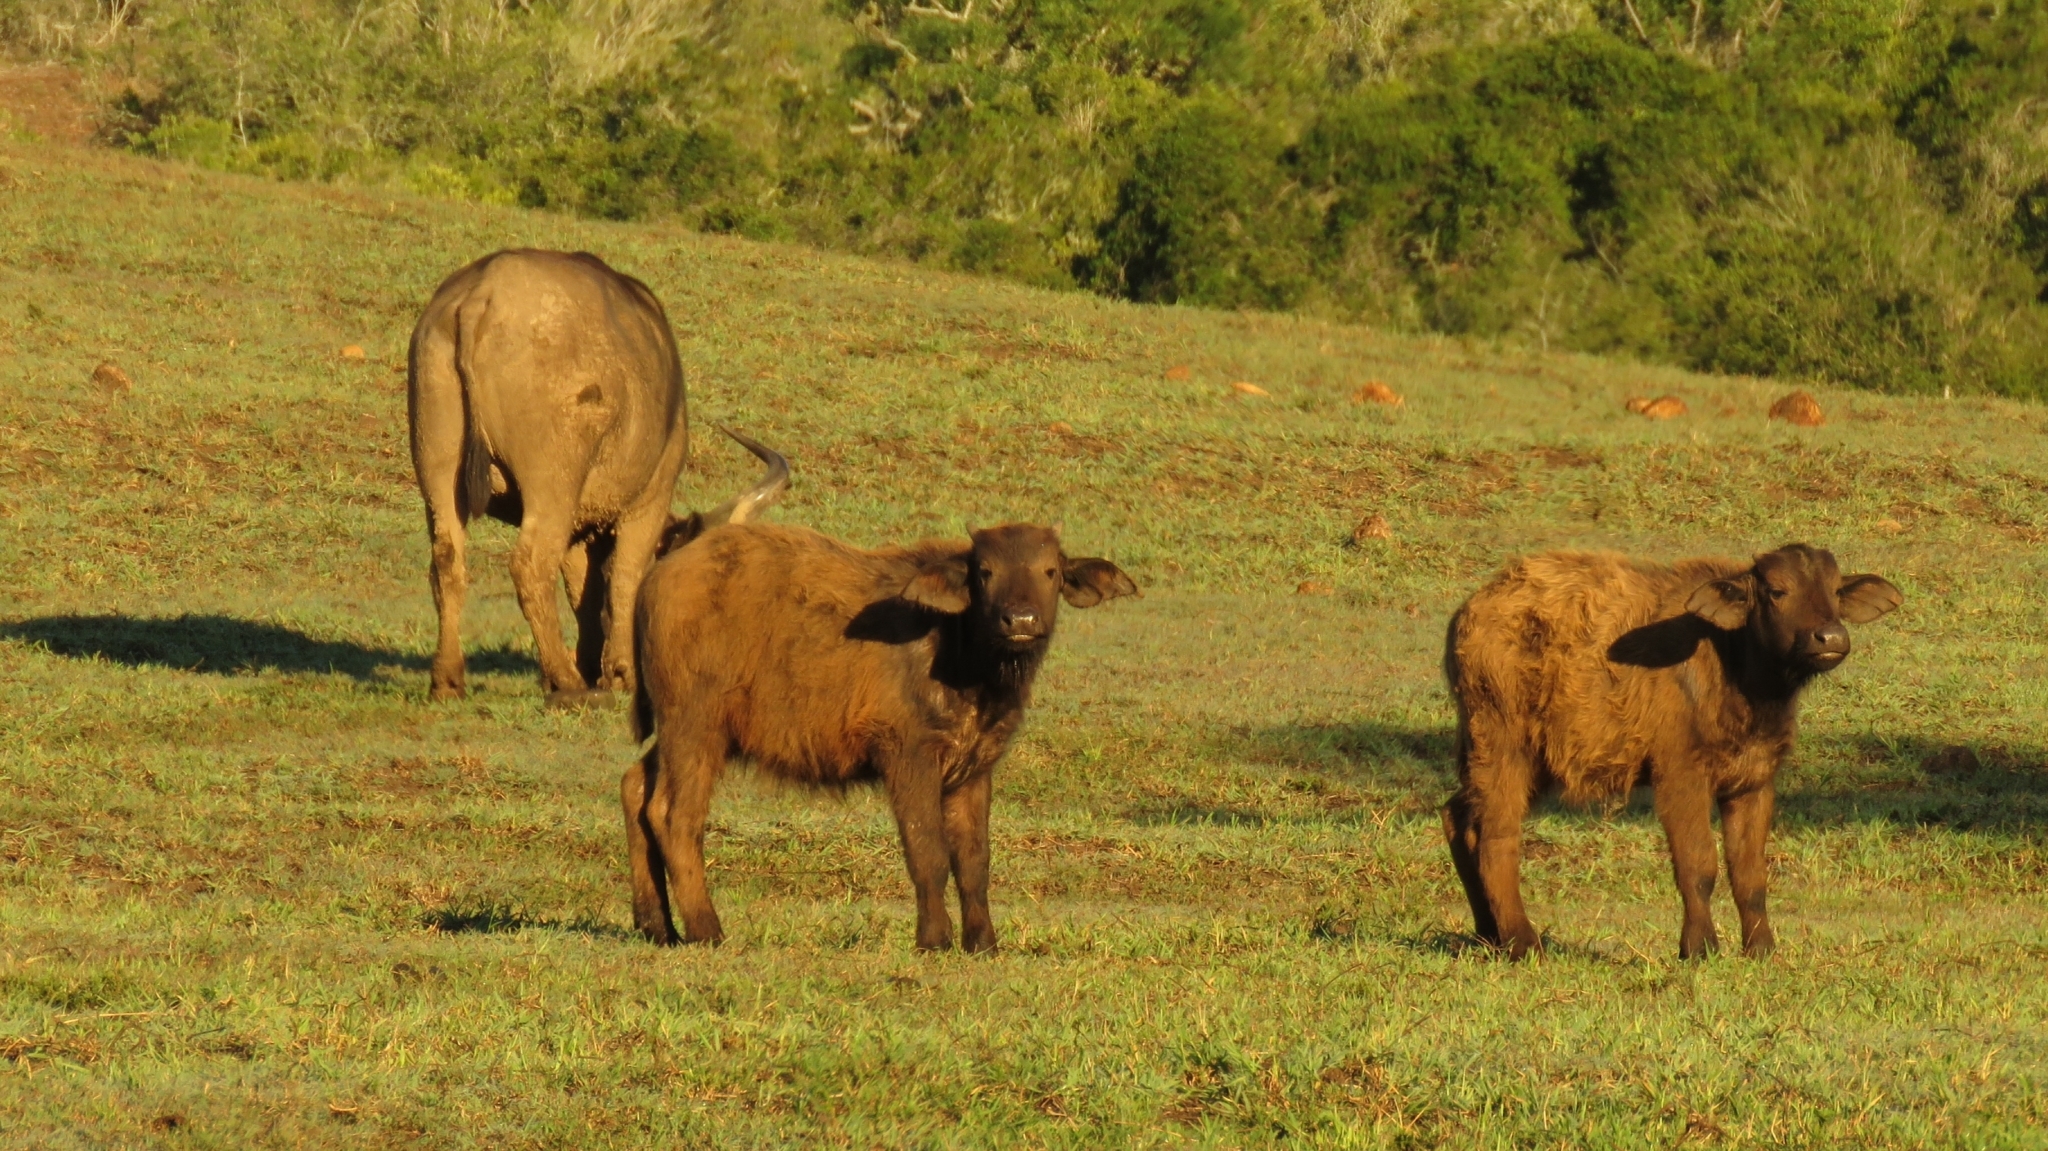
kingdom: Animalia
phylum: Chordata
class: Mammalia
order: Artiodactyla
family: Bovidae
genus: Syncerus
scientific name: Syncerus caffer
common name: African buffalo
